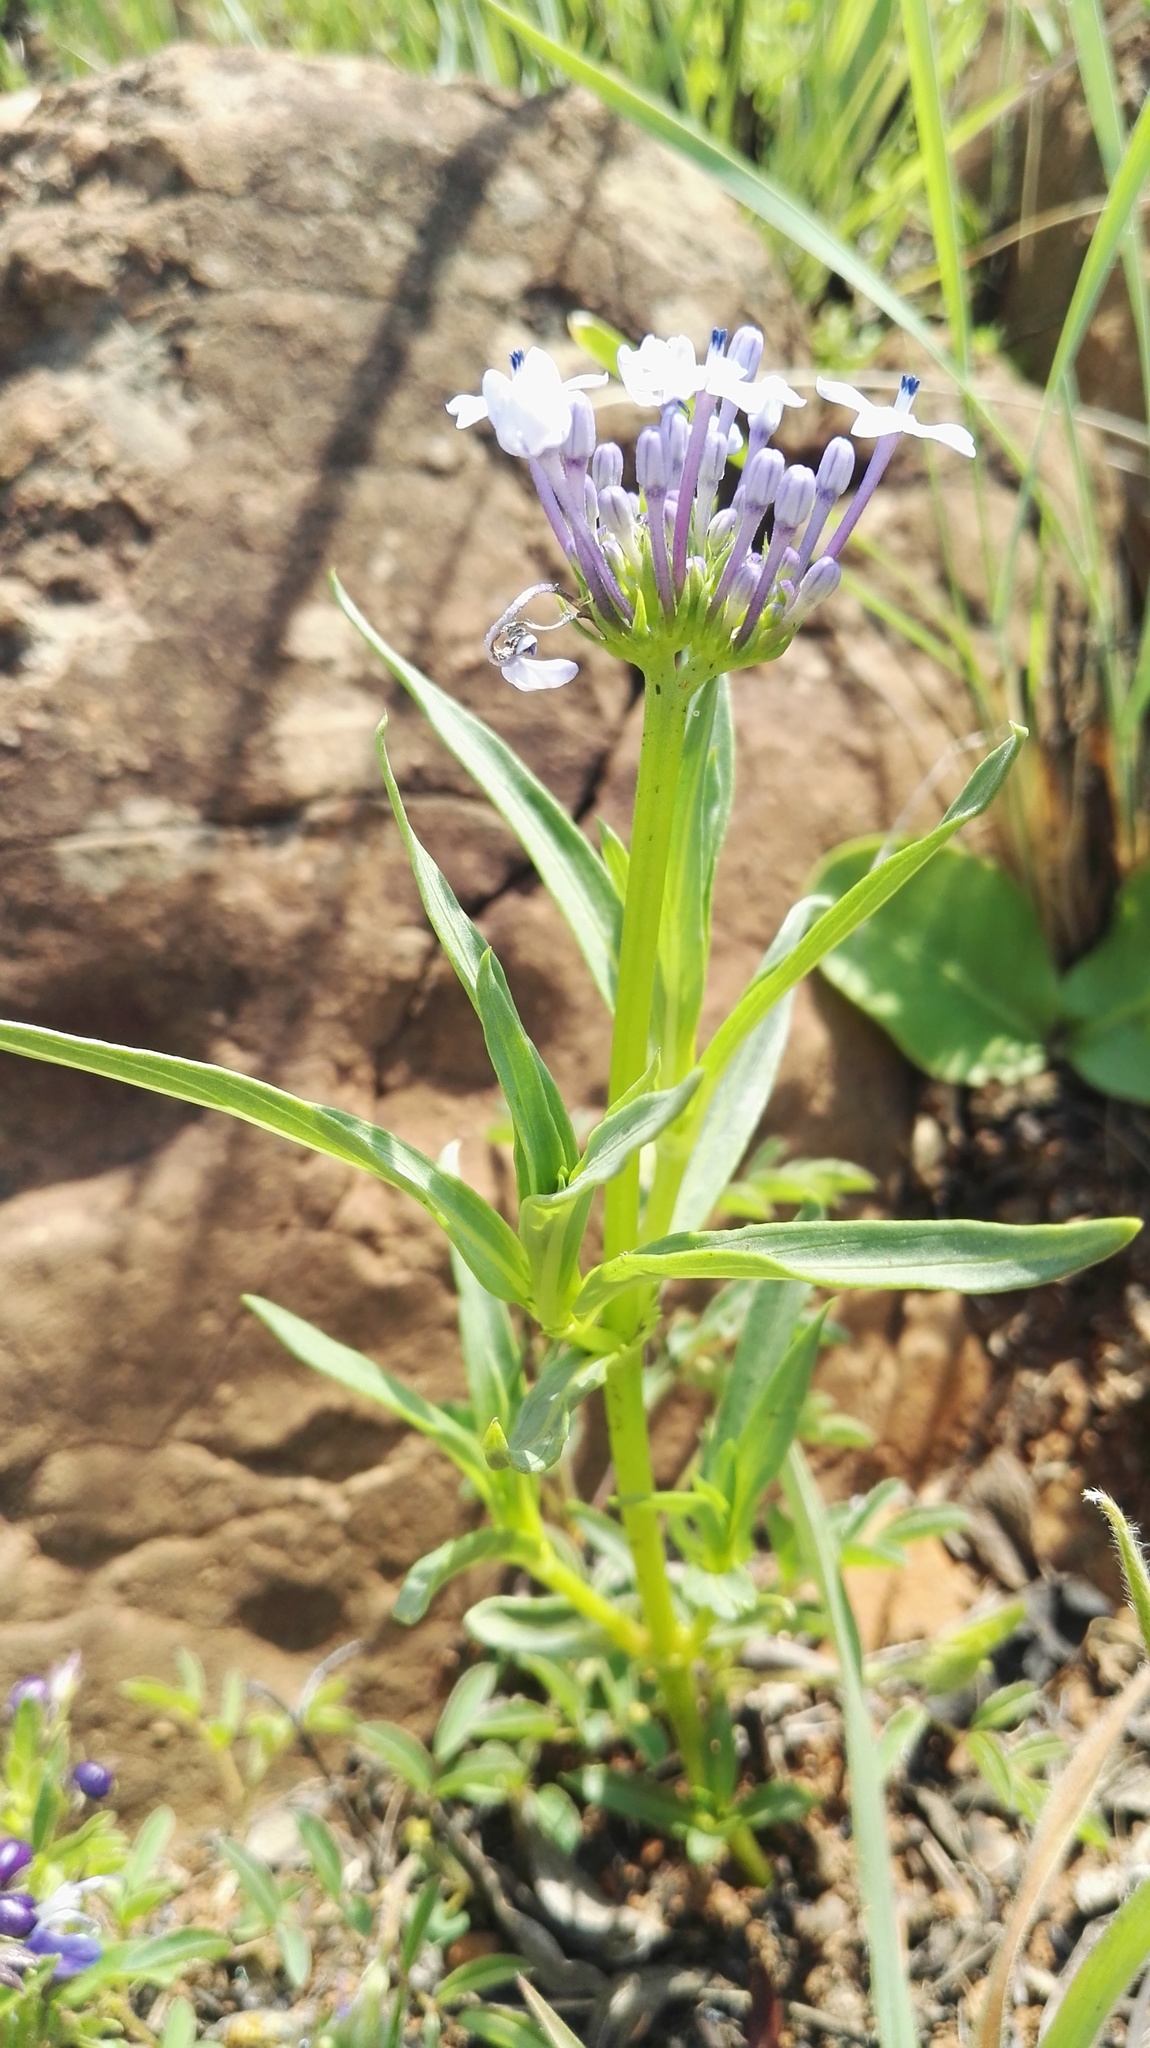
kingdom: Plantae
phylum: Tracheophyta
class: Magnoliopsida
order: Gentianales
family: Rubiaceae
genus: Pentanisia
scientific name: Pentanisia angustifolia
